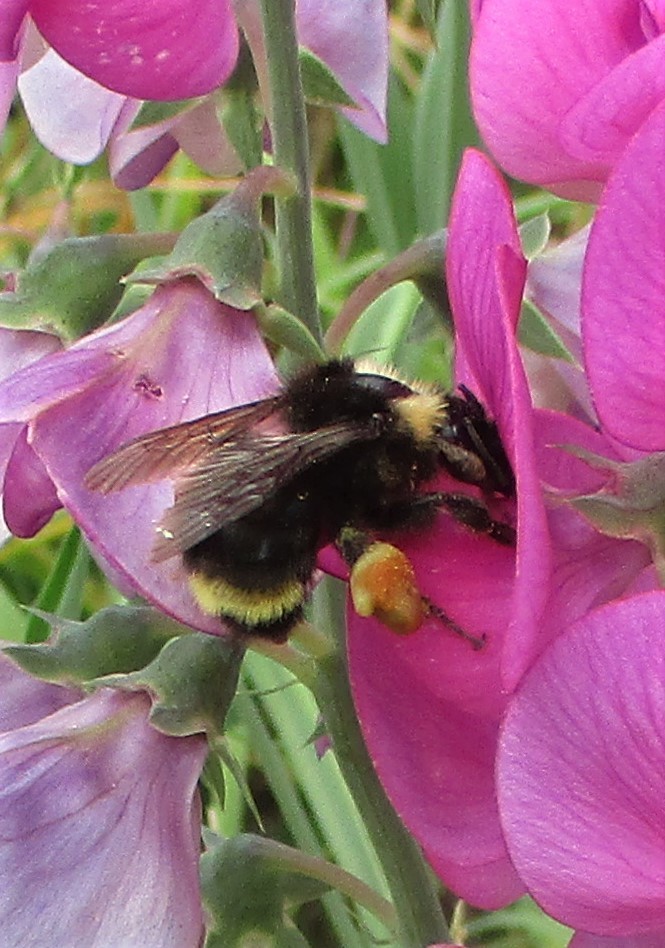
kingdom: Animalia
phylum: Arthropoda
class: Insecta
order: Hymenoptera
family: Apidae
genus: Bombus
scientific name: Bombus californicus
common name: California bumble bee
